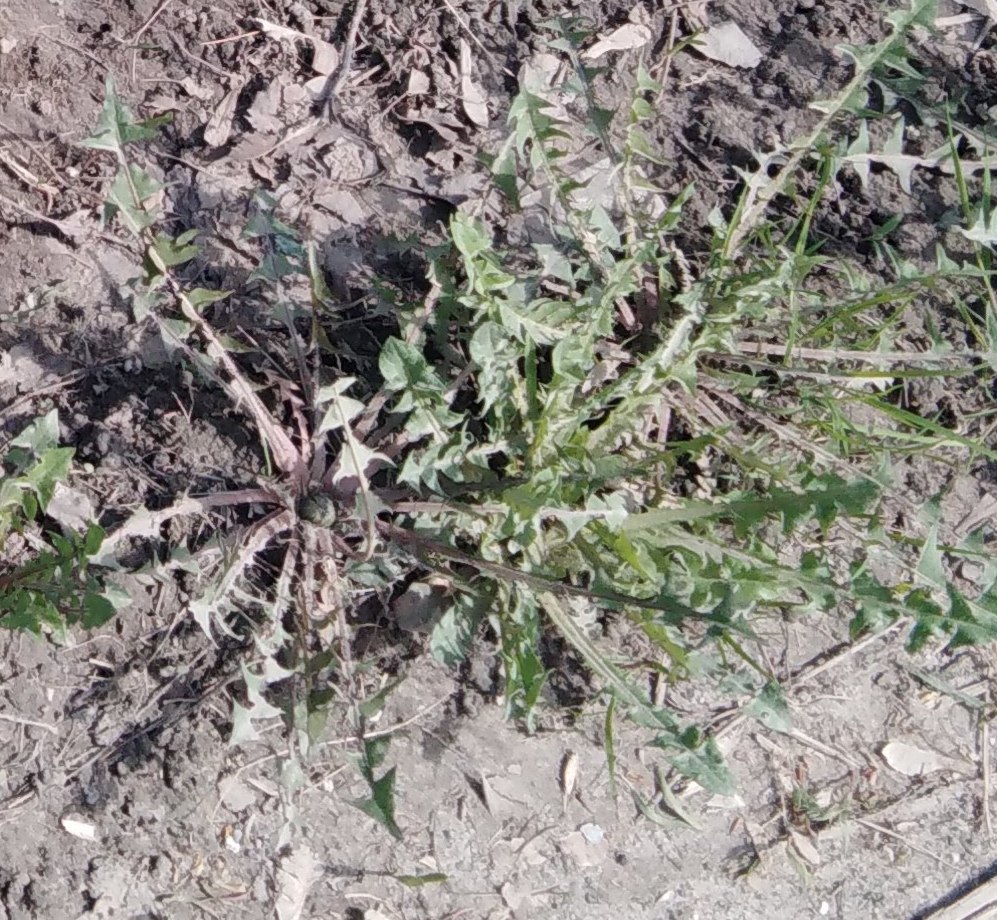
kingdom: Plantae
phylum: Tracheophyta
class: Magnoliopsida
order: Asterales
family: Asteraceae
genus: Taraxacum
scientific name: Taraxacum officinale
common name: Common dandelion
